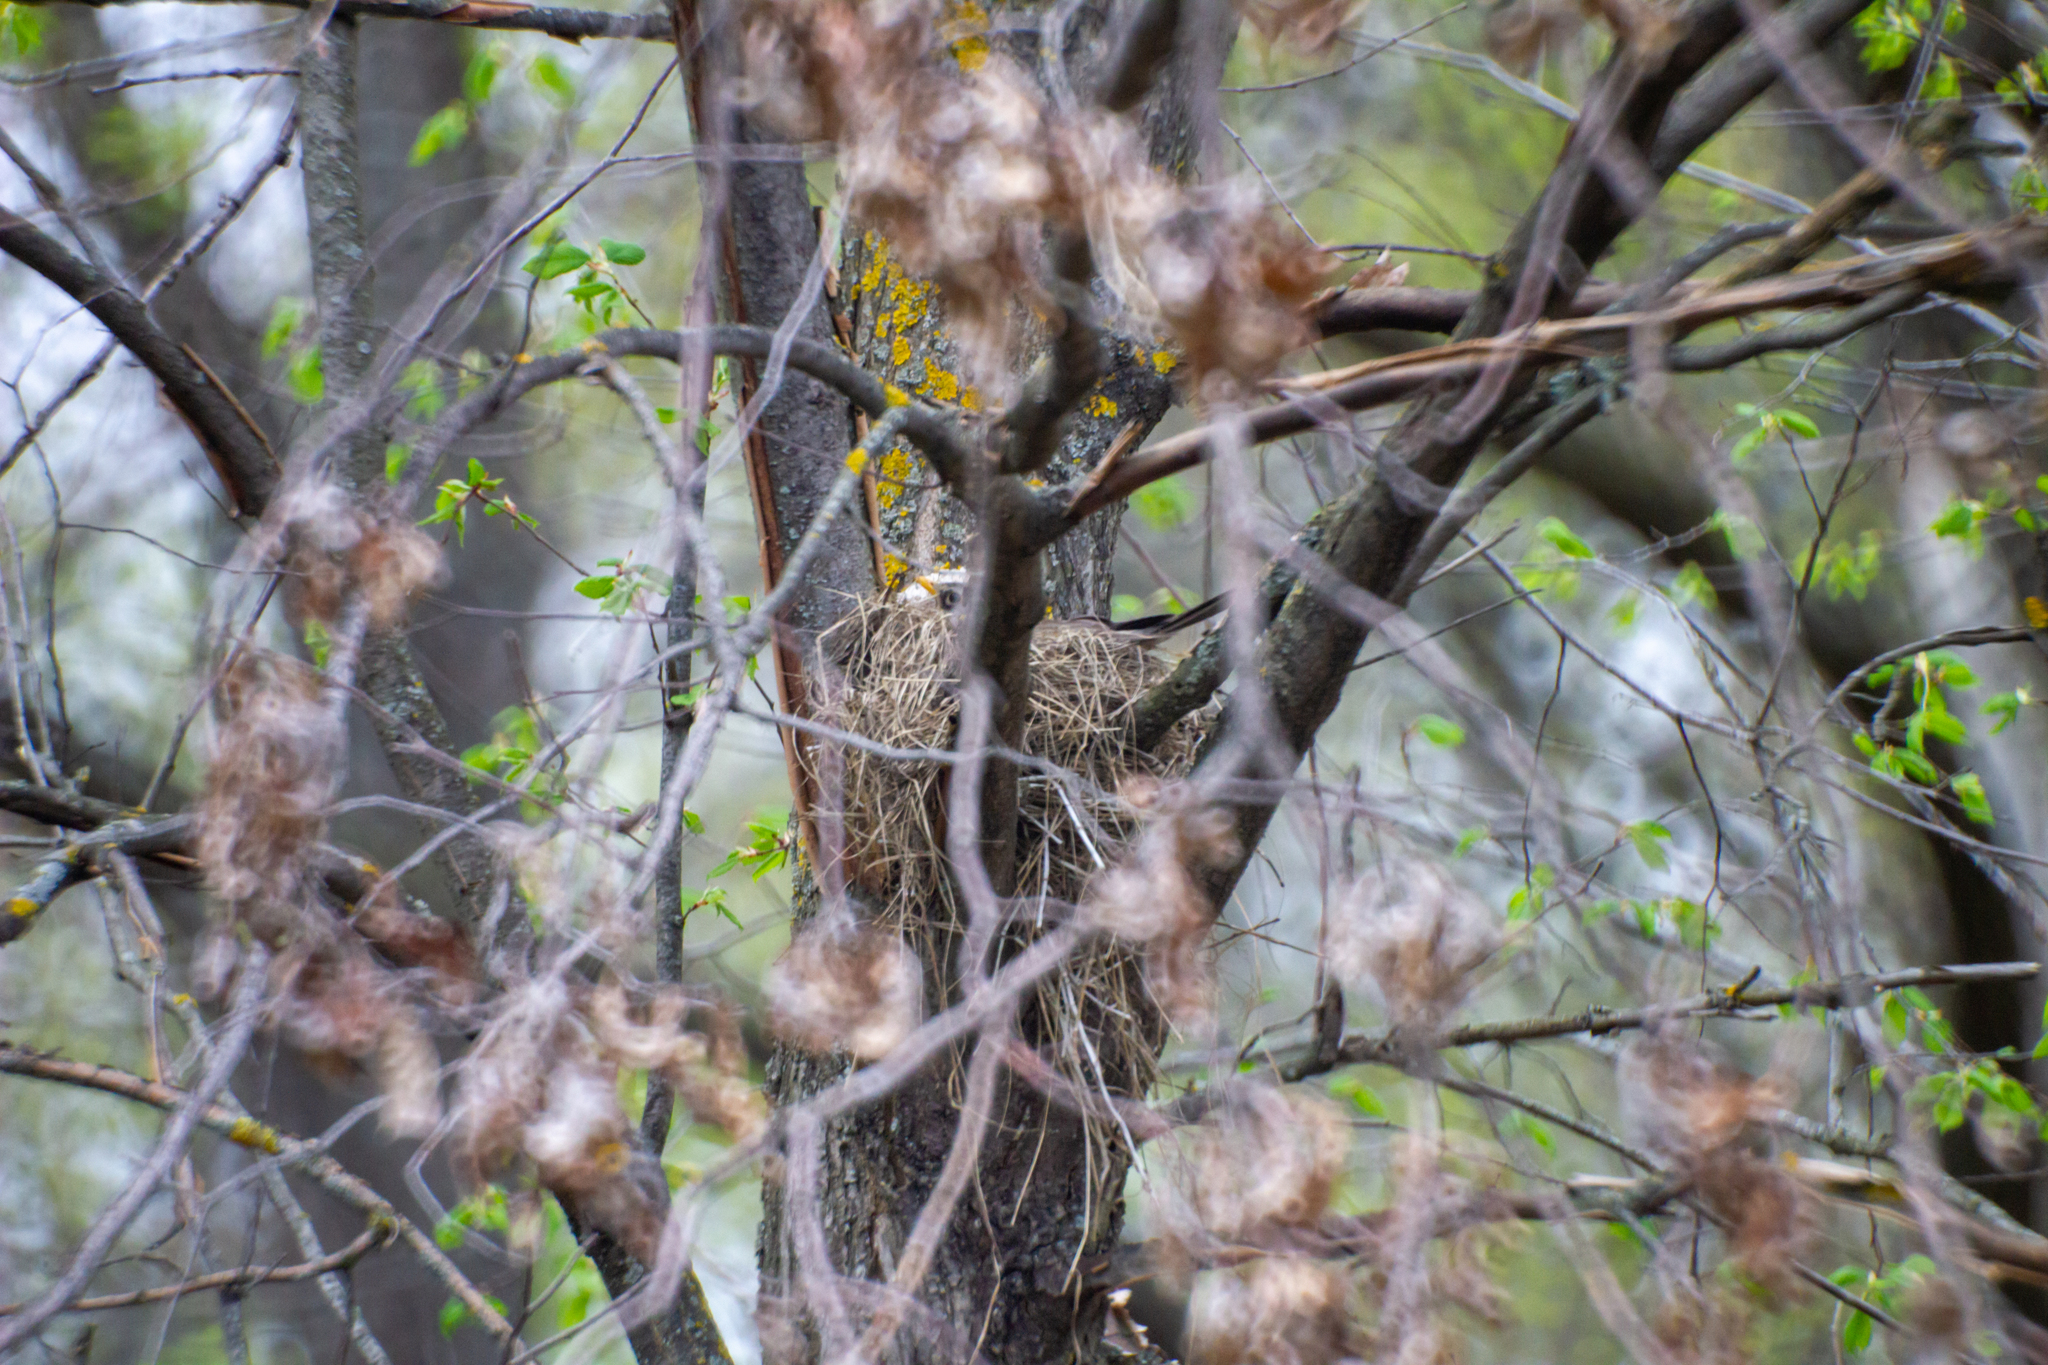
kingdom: Animalia
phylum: Chordata
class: Aves
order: Passeriformes
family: Turdidae
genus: Turdus
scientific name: Turdus pilaris
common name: Fieldfare
